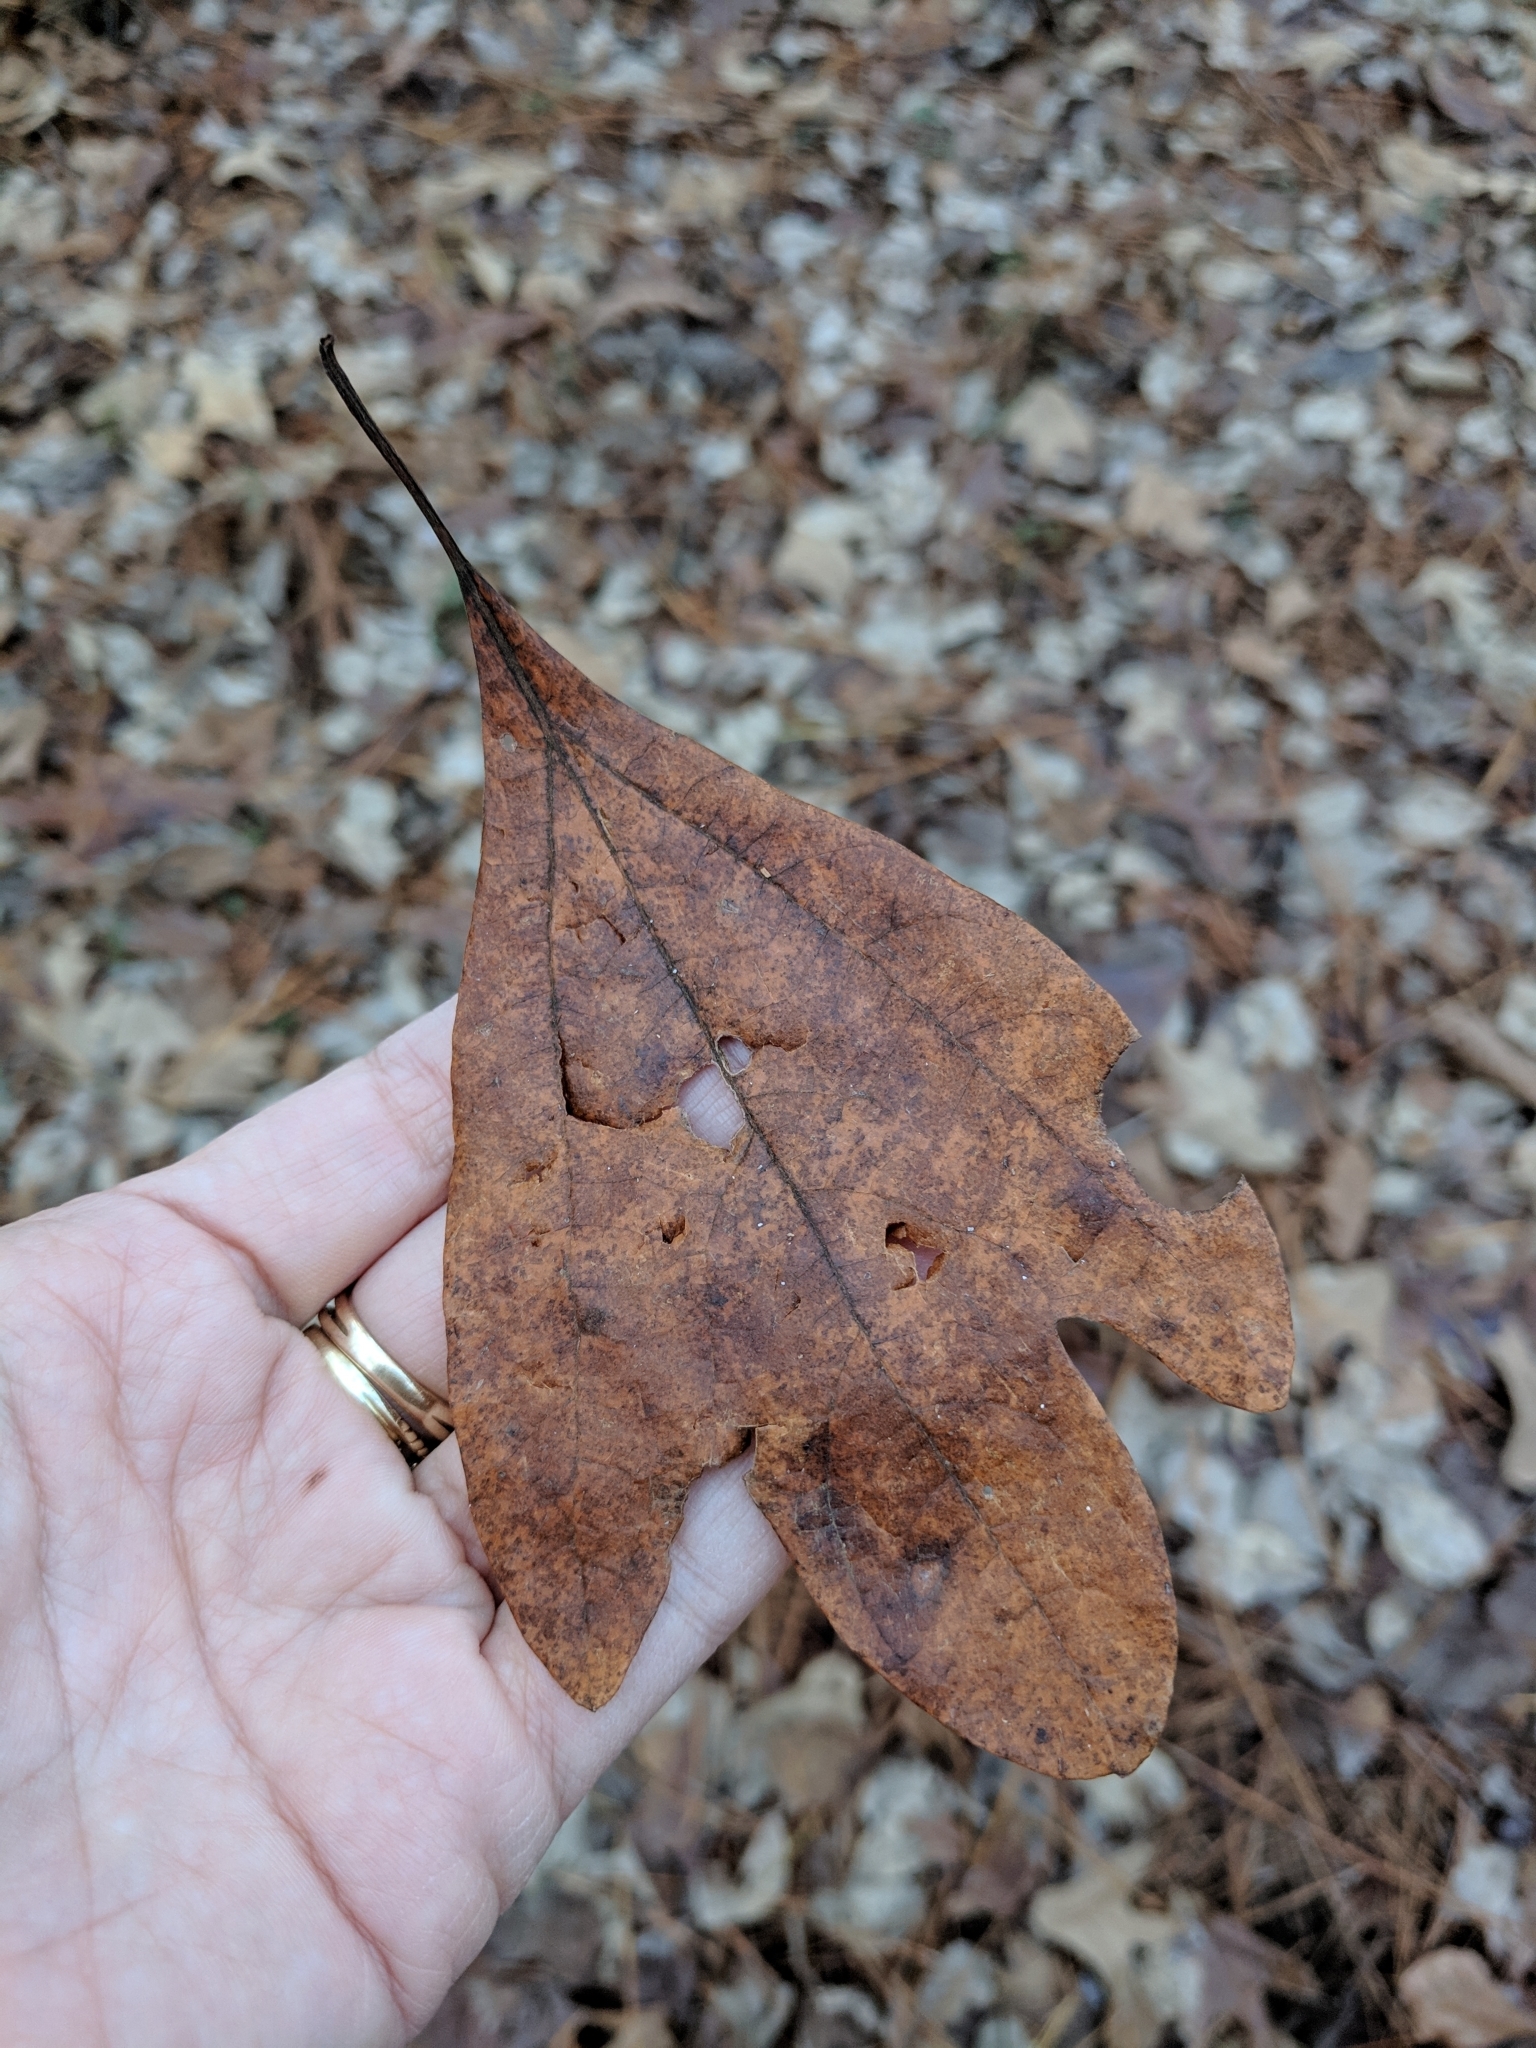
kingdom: Plantae
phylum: Tracheophyta
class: Magnoliopsida
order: Laurales
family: Lauraceae
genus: Sassafras
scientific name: Sassafras albidum
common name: Sassafras
